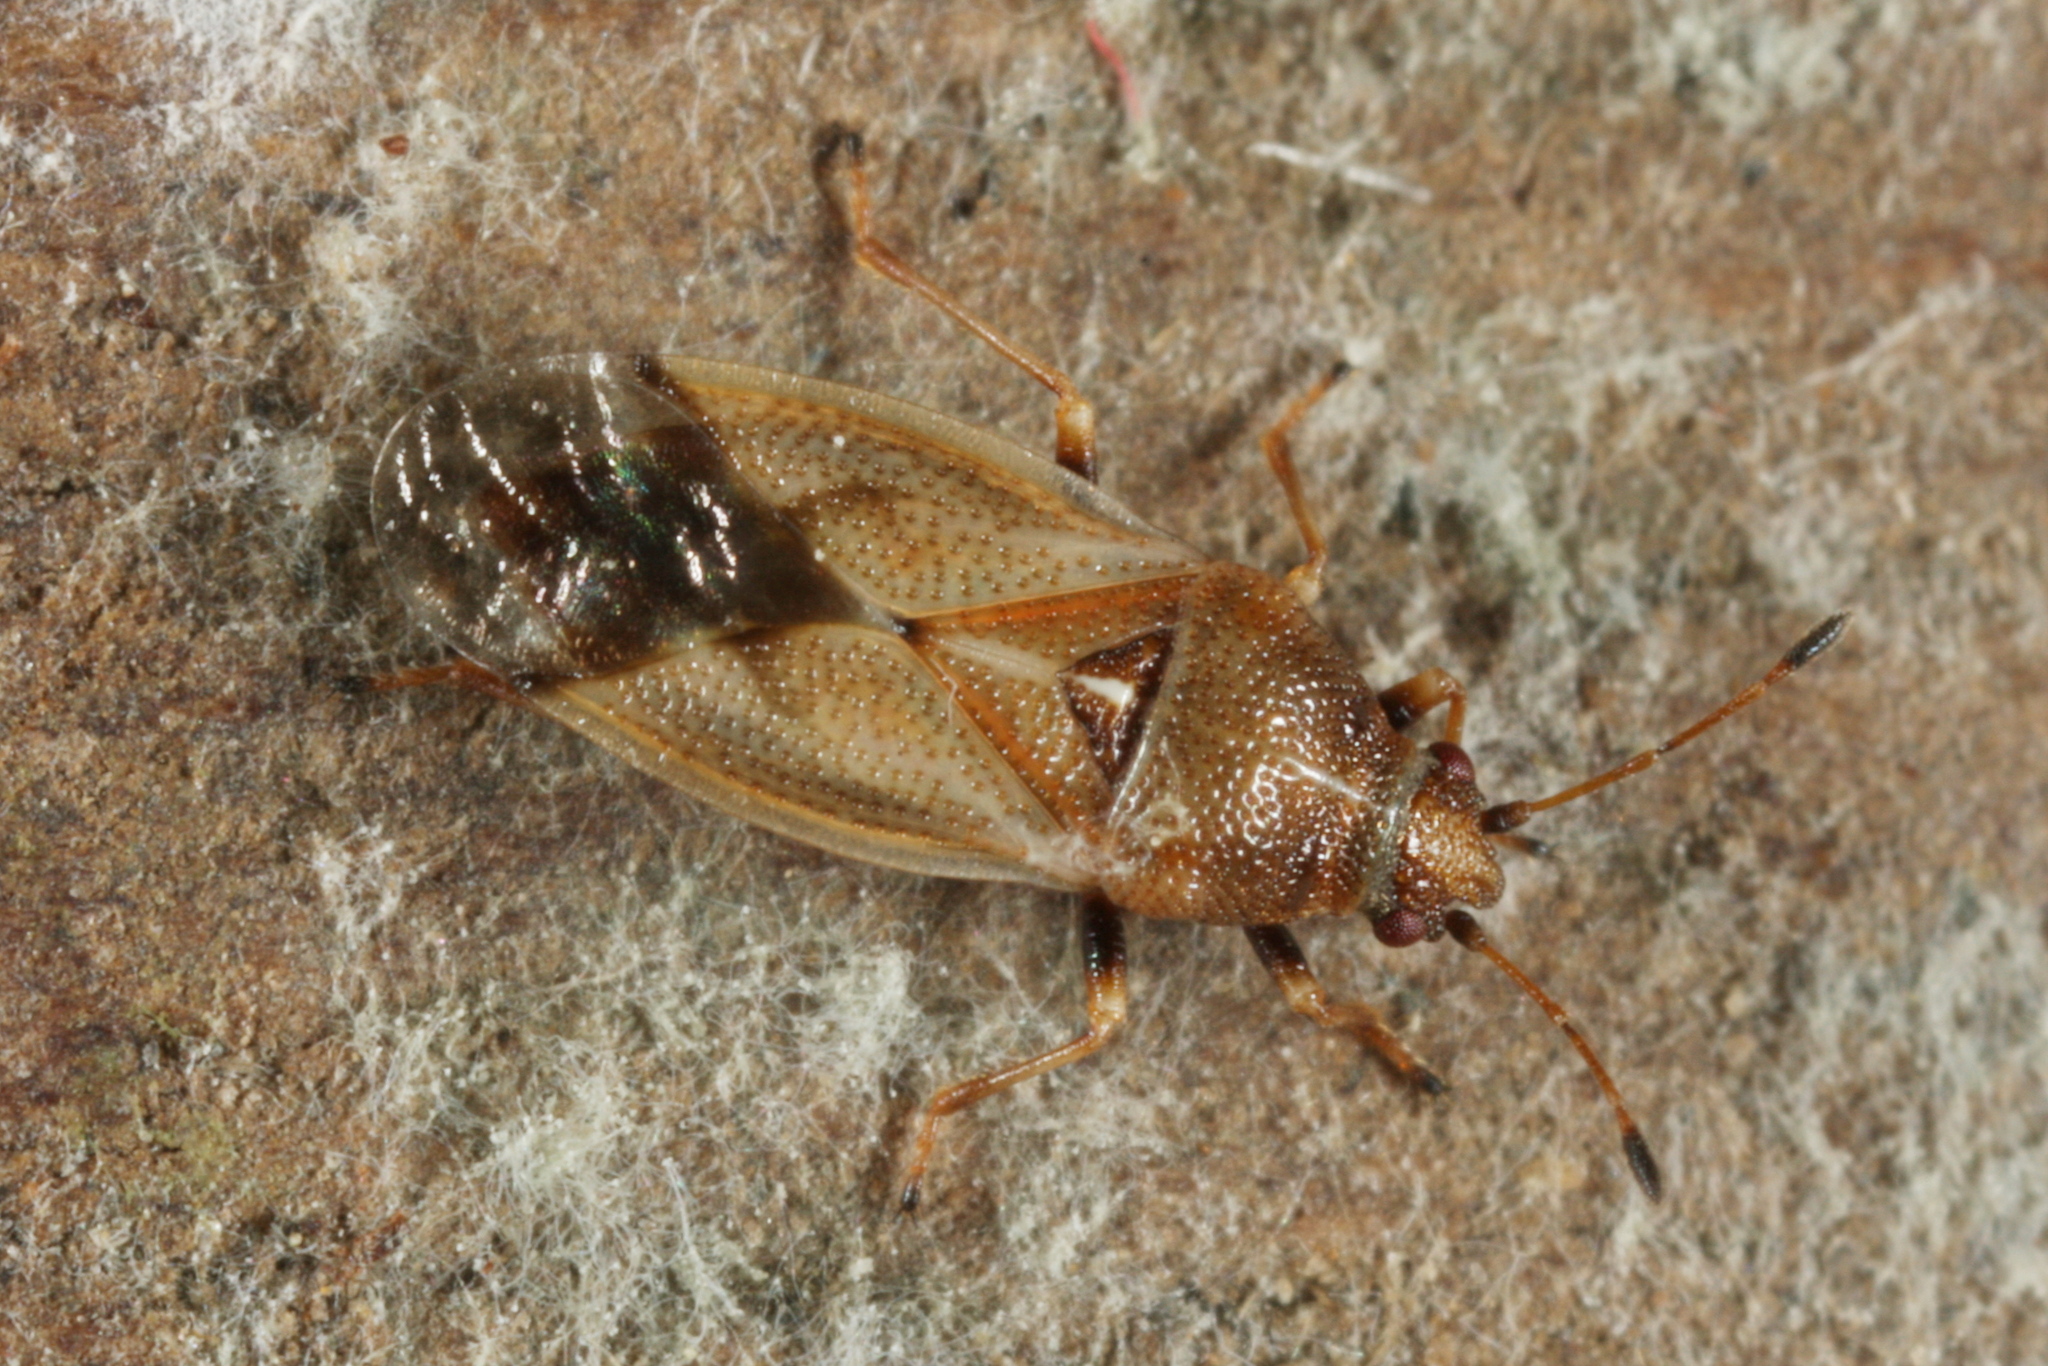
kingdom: Animalia
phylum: Arthropoda
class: Insecta
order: Hemiptera
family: Cymidae
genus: Cymus
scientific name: Cymus aurescens
